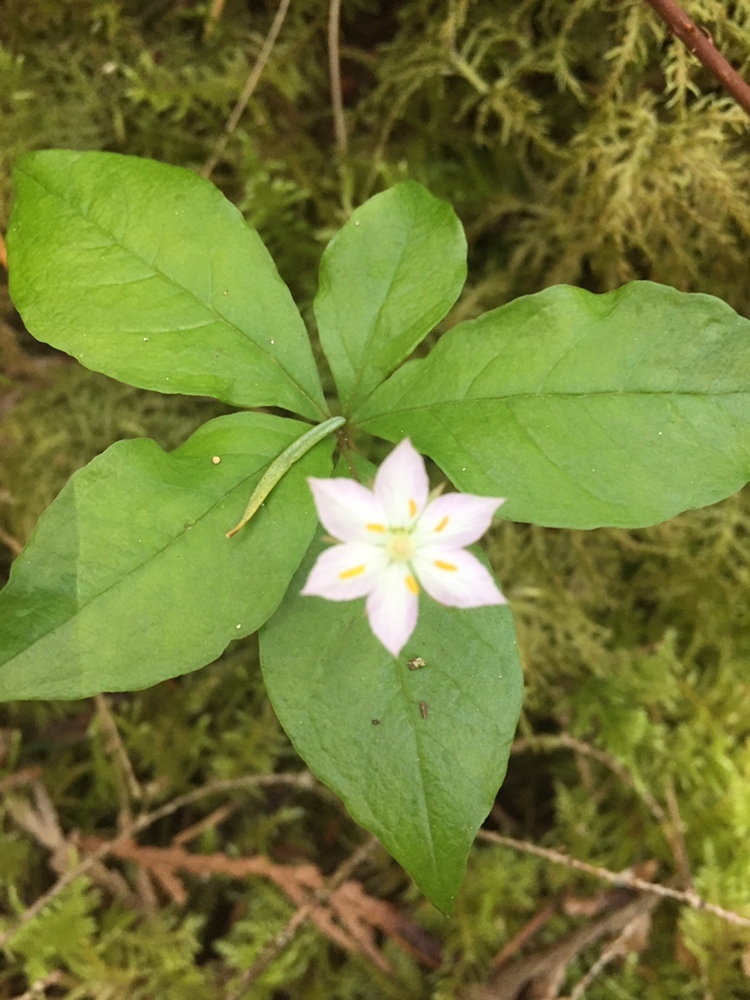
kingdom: Plantae
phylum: Tracheophyta
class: Magnoliopsida
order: Ericales
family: Primulaceae
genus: Lysimachia
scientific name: Lysimachia latifolia
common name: Pacific starflower
